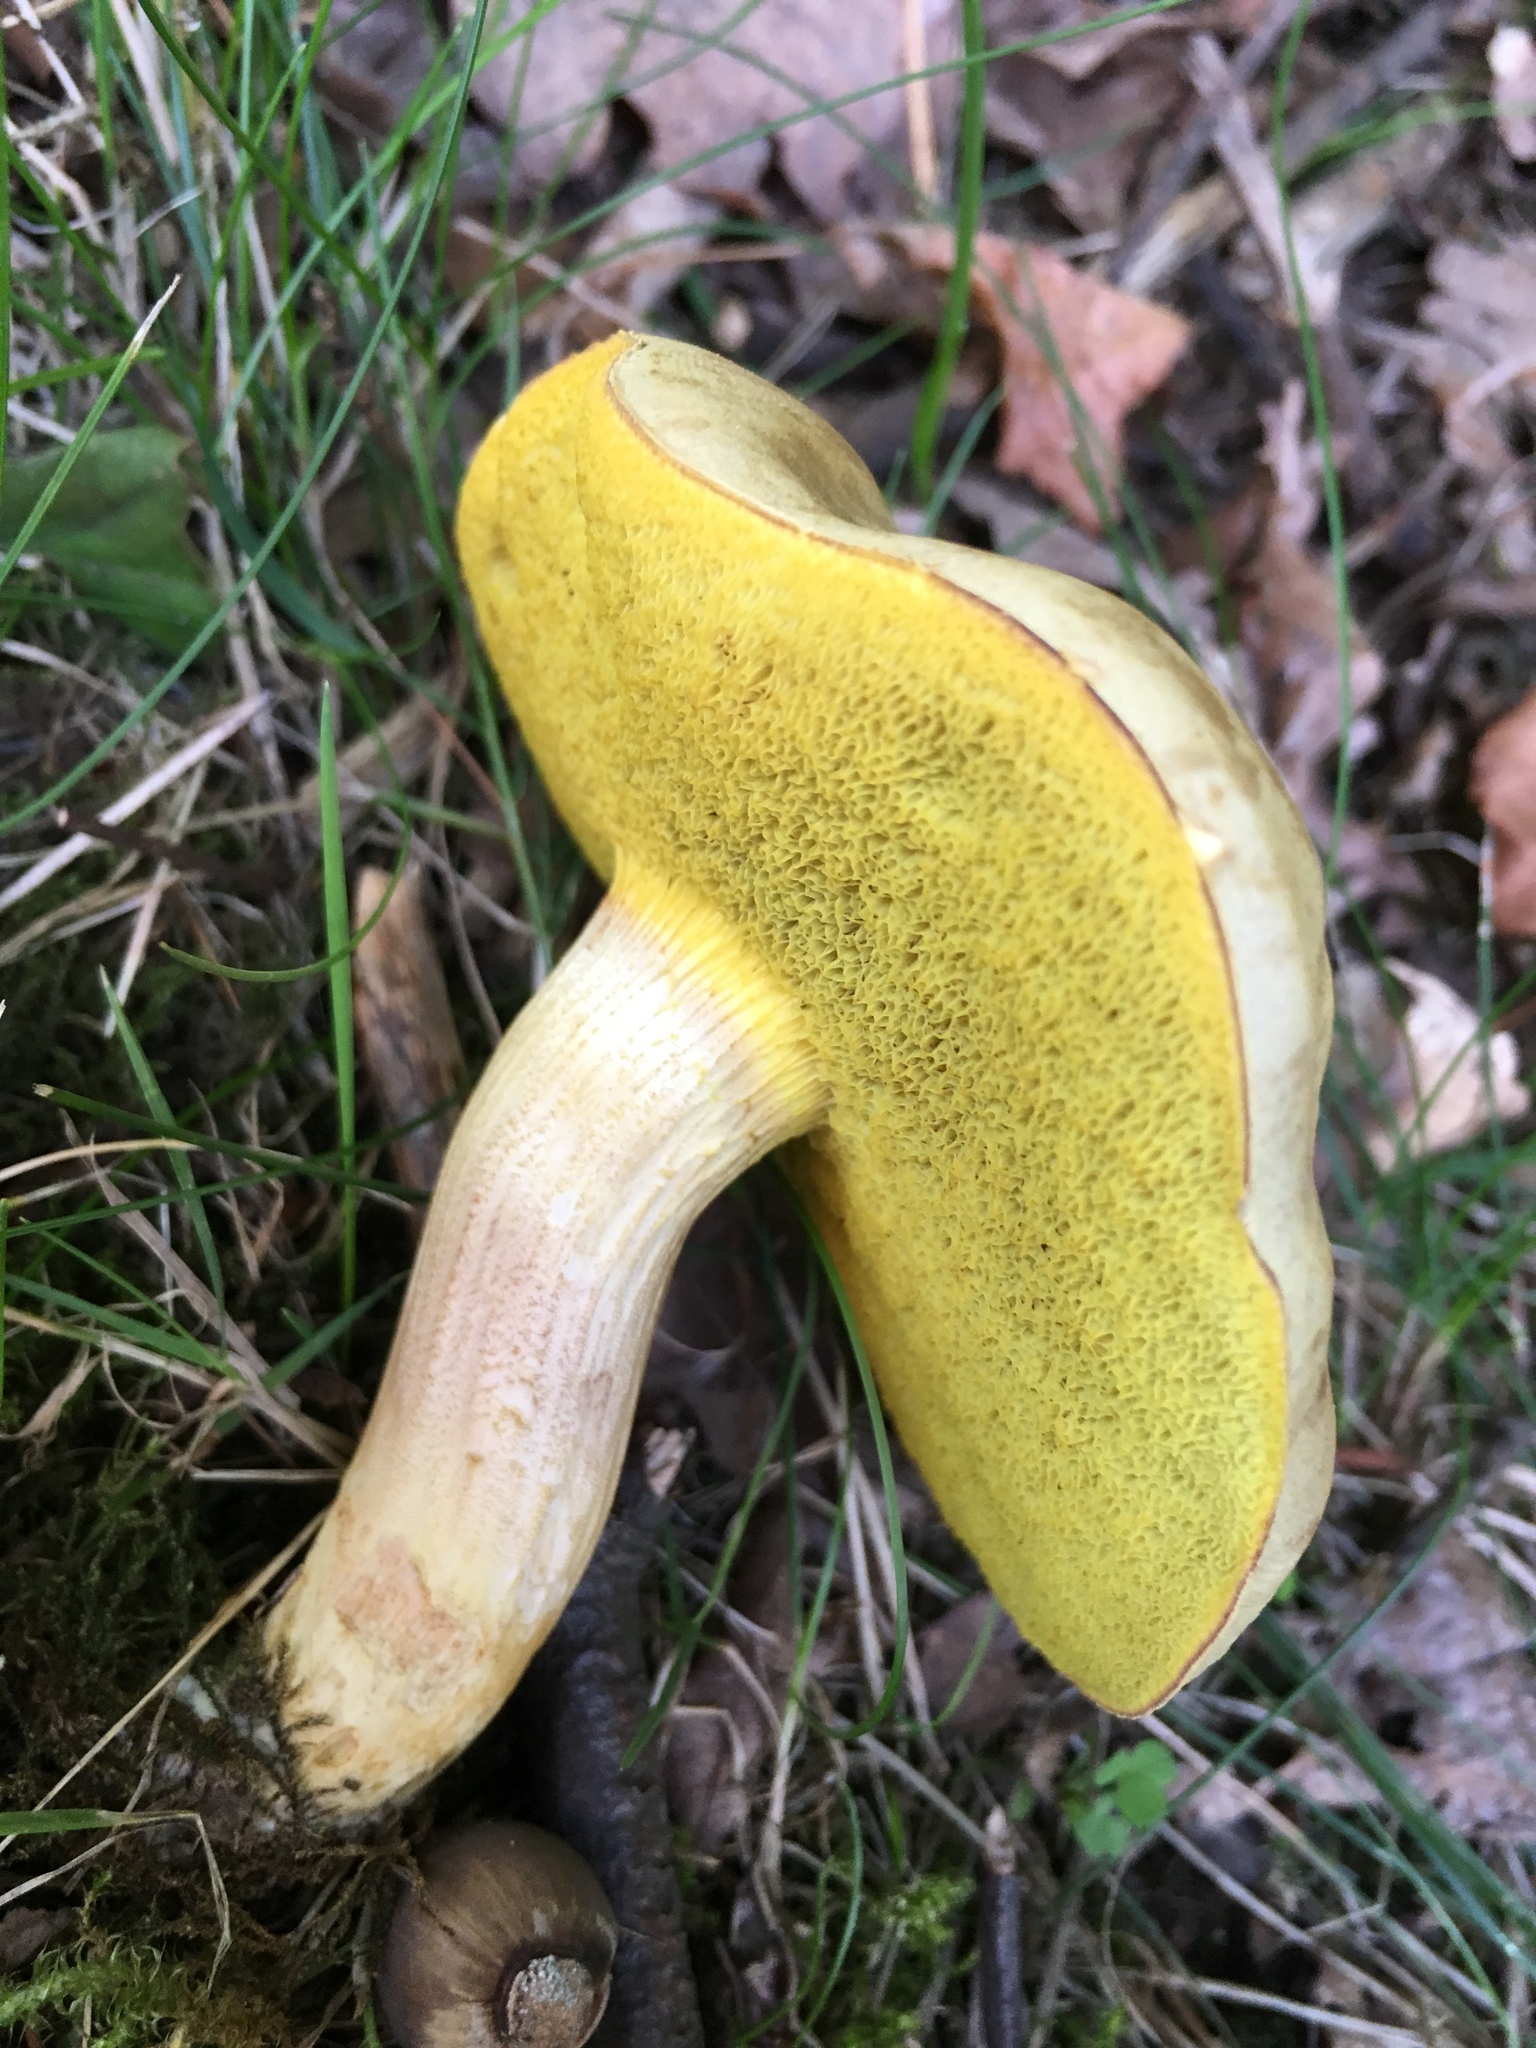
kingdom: Fungi
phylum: Basidiomycota
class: Agaricomycetes
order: Boletales
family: Boletaceae
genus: Xerocomus
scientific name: Xerocomus subtomentosus
